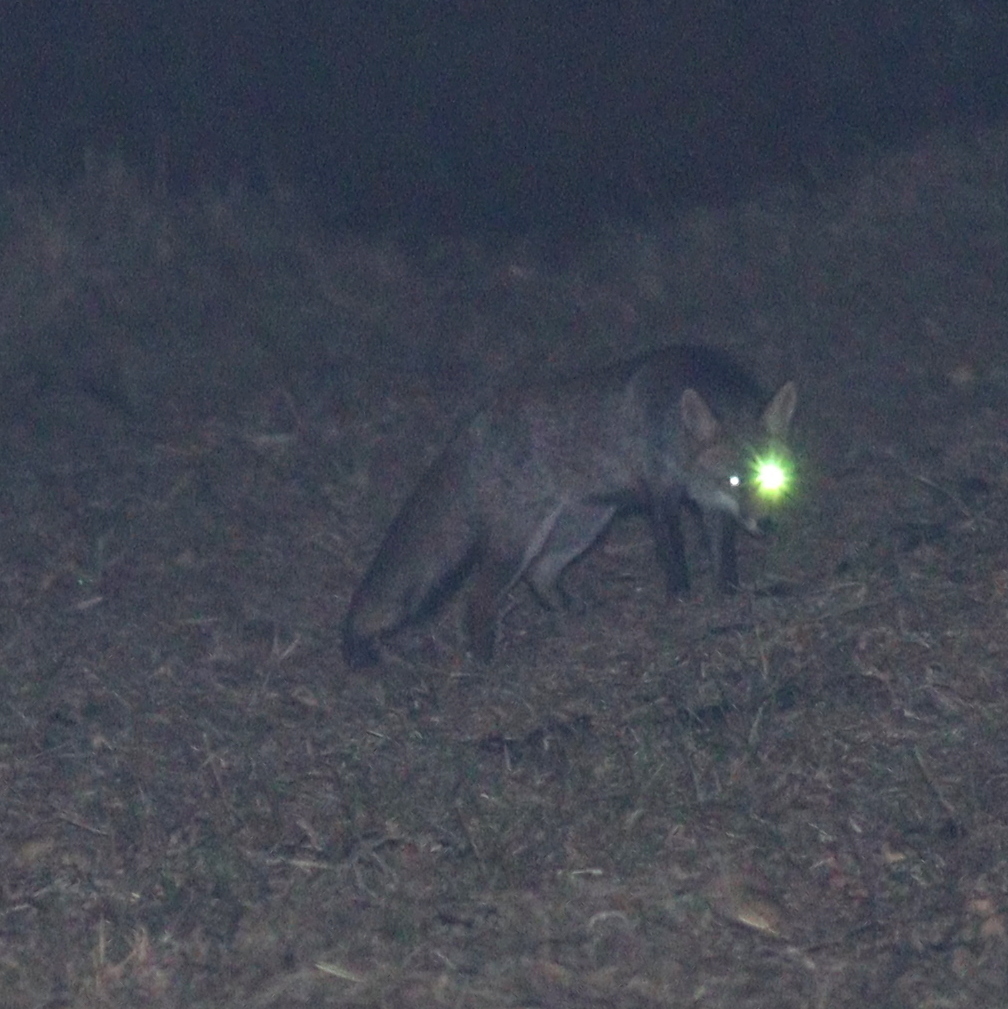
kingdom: Animalia
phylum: Chordata
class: Mammalia
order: Carnivora
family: Canidae
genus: Vulpes
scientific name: Vulpes vulpes
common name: Red fox
